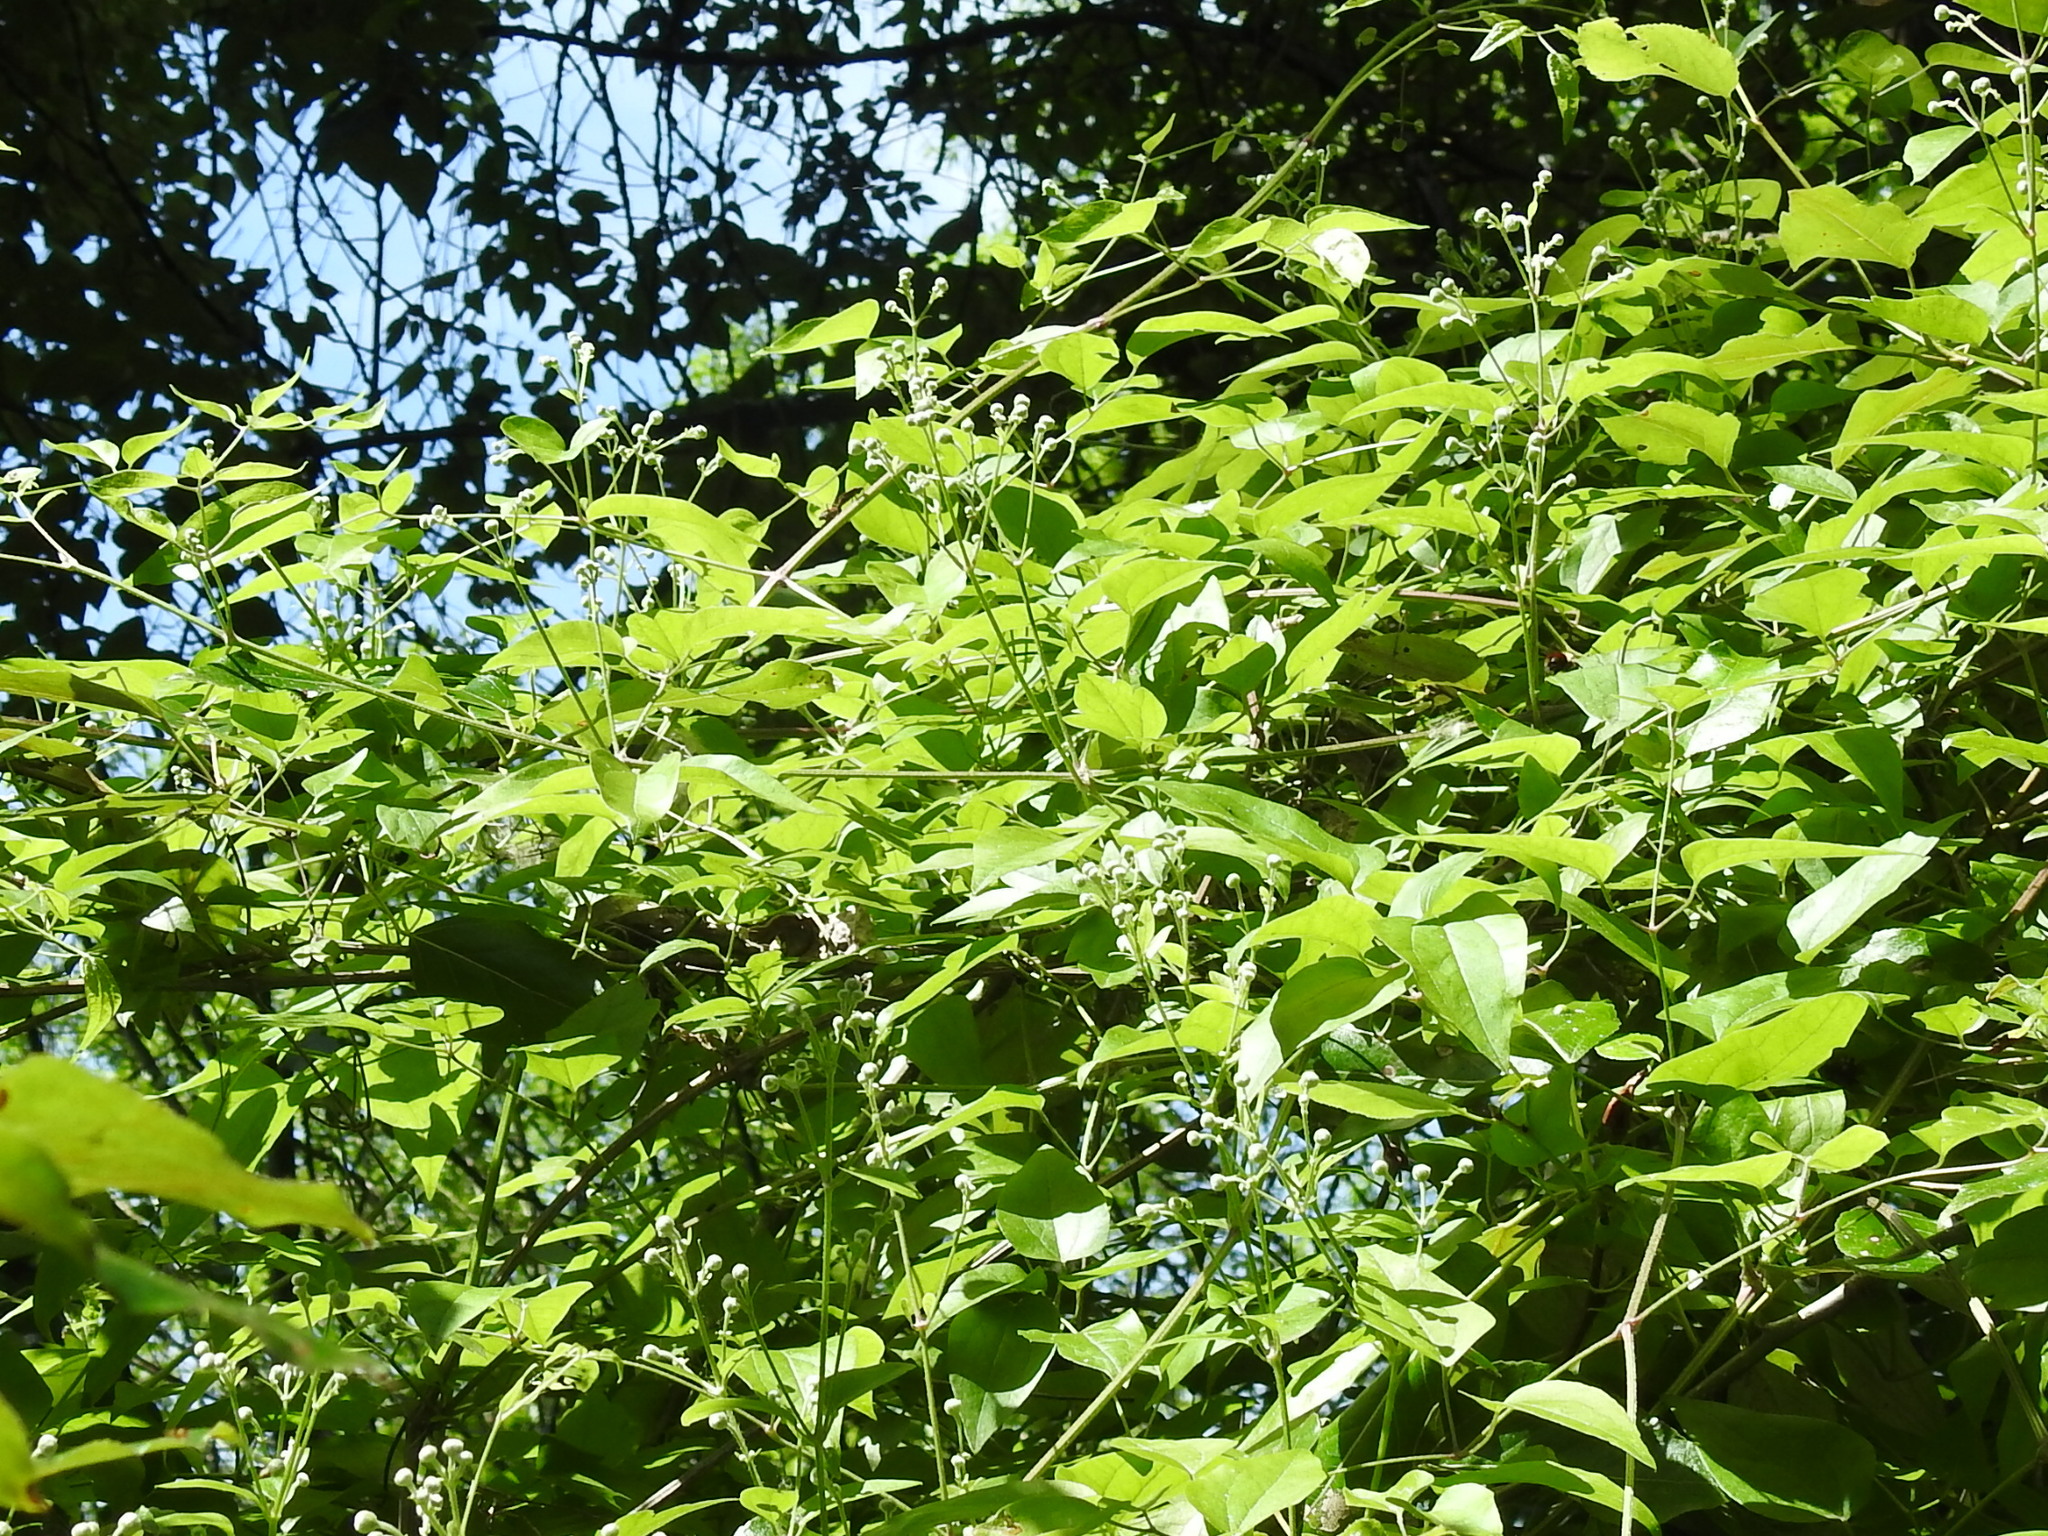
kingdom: Plantae
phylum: Tracheophyta
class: Magnoliopsida
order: Ranunculales
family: Ranunculaceae
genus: Clematis
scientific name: Clematis vitalba
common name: Evergreen clematis
